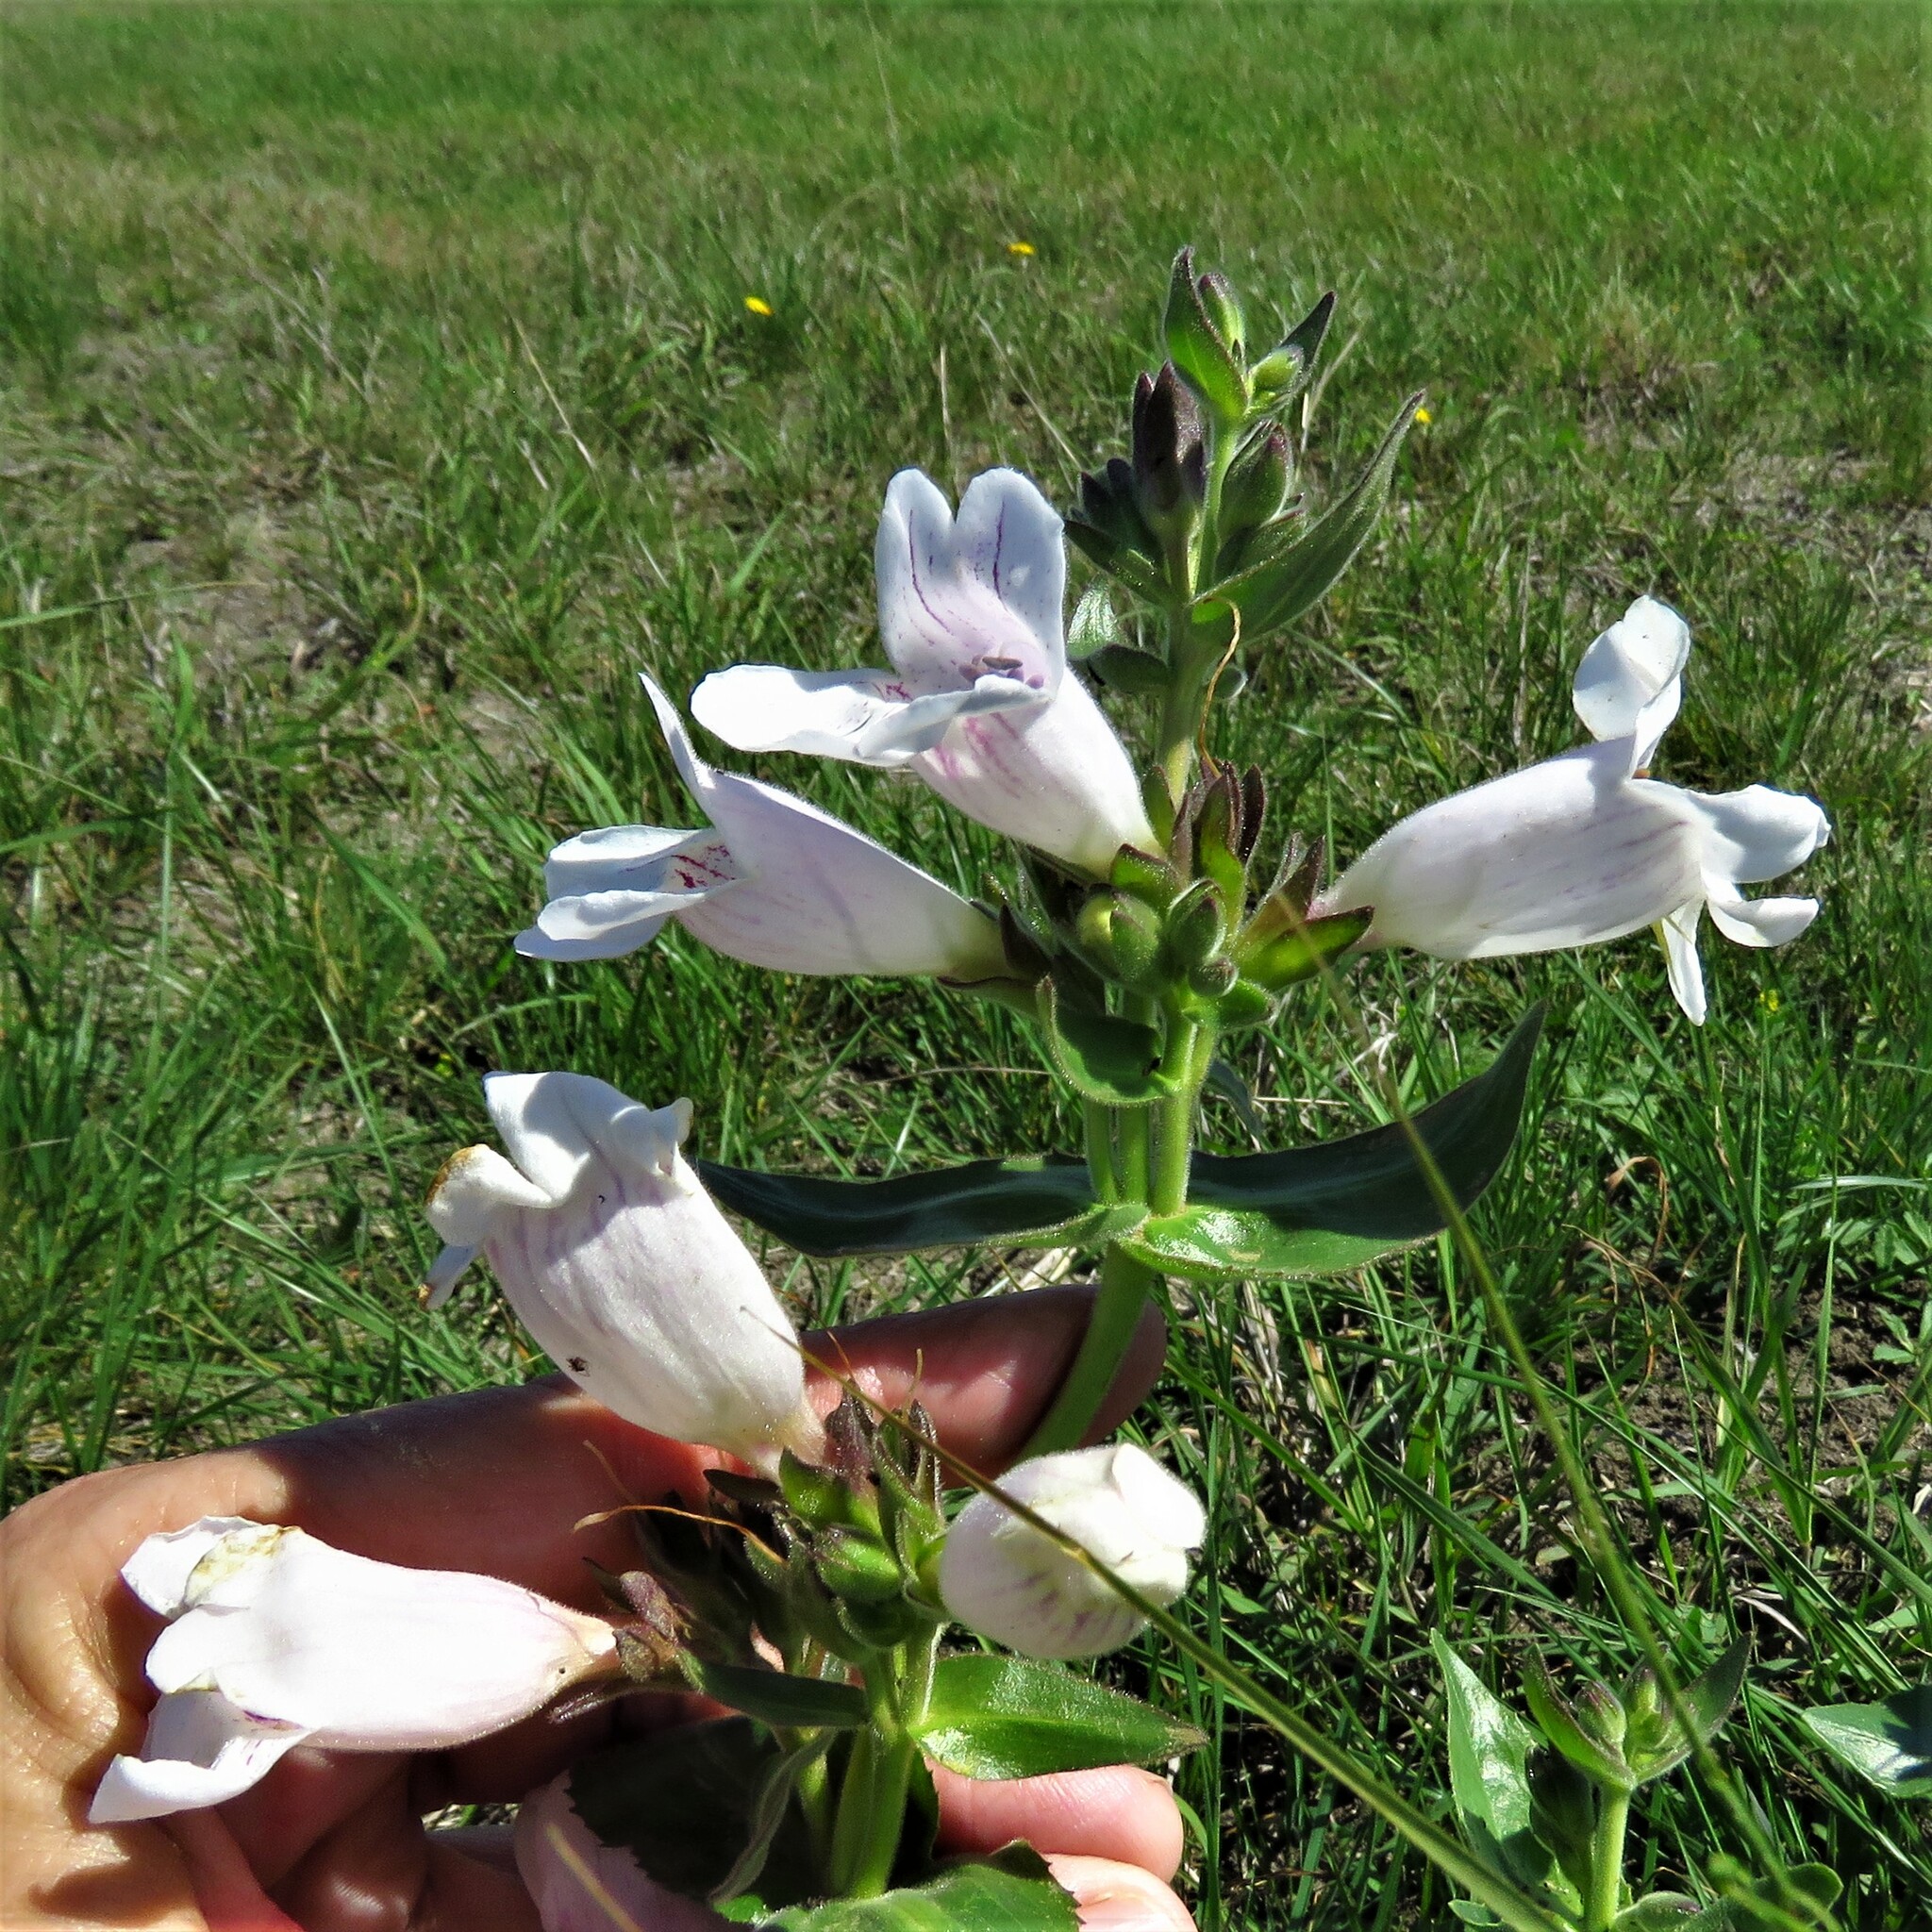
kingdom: Plantae
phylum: Tracheophyta
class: Magnoliopsida
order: Lamiales
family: Plantaginaceae
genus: Penstemon
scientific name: Penstemon cobaea
